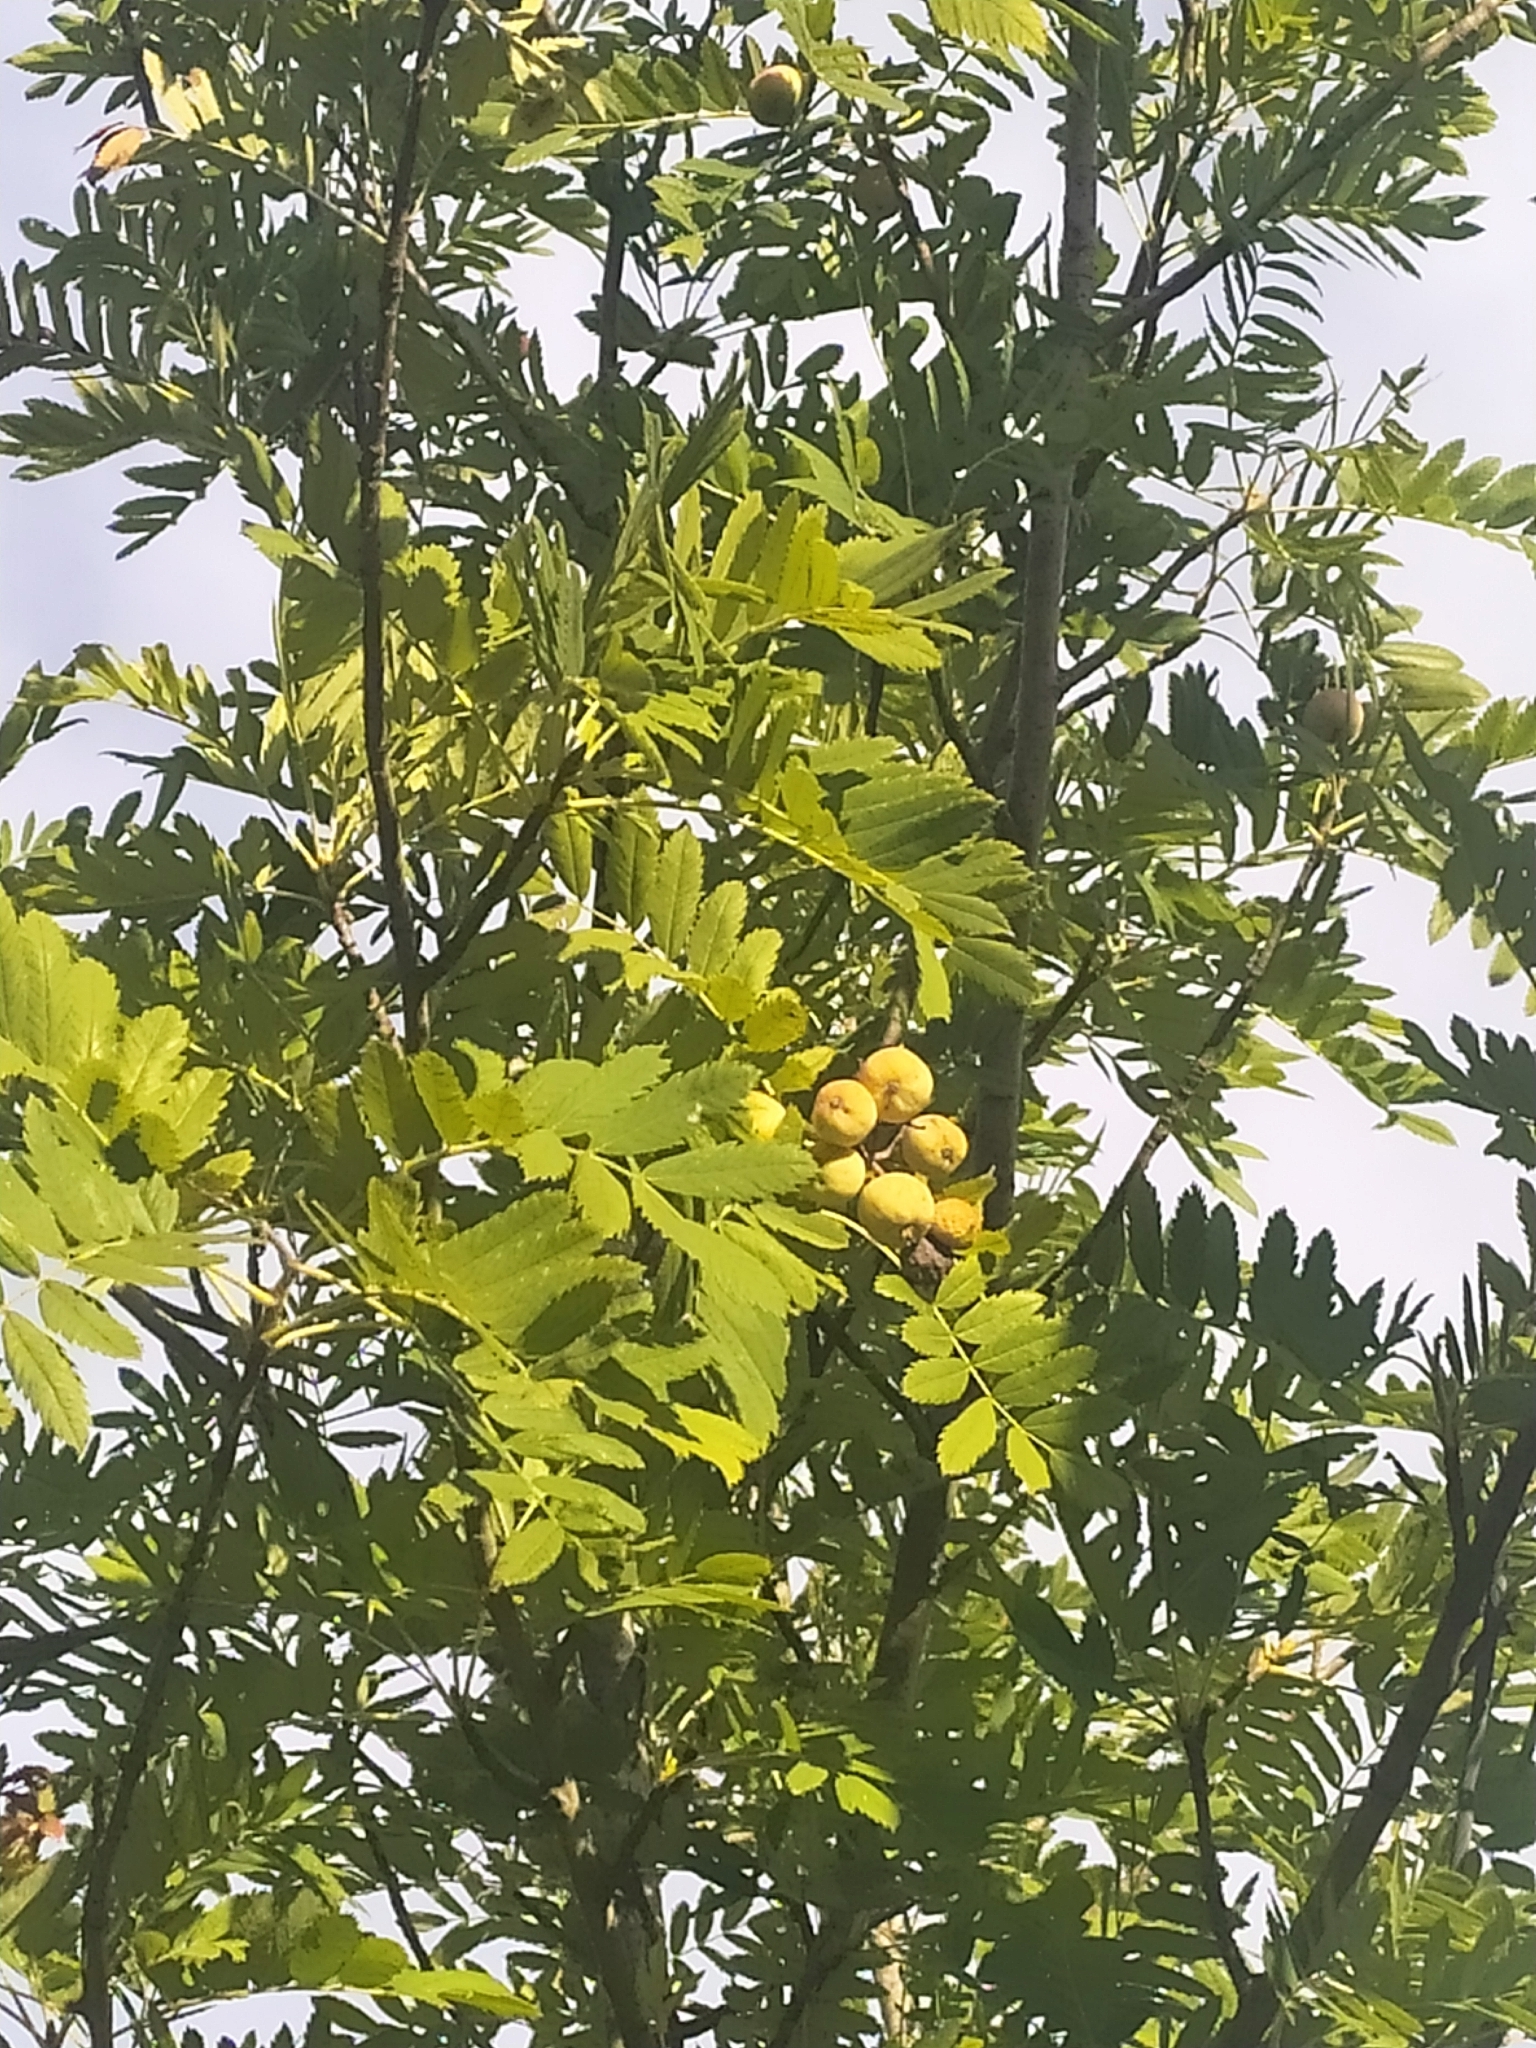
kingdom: Plantae
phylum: Tracheophyta
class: Magnoliopsida
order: Rosales
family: Rosaceae
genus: Cormus
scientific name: Cormus domestica
